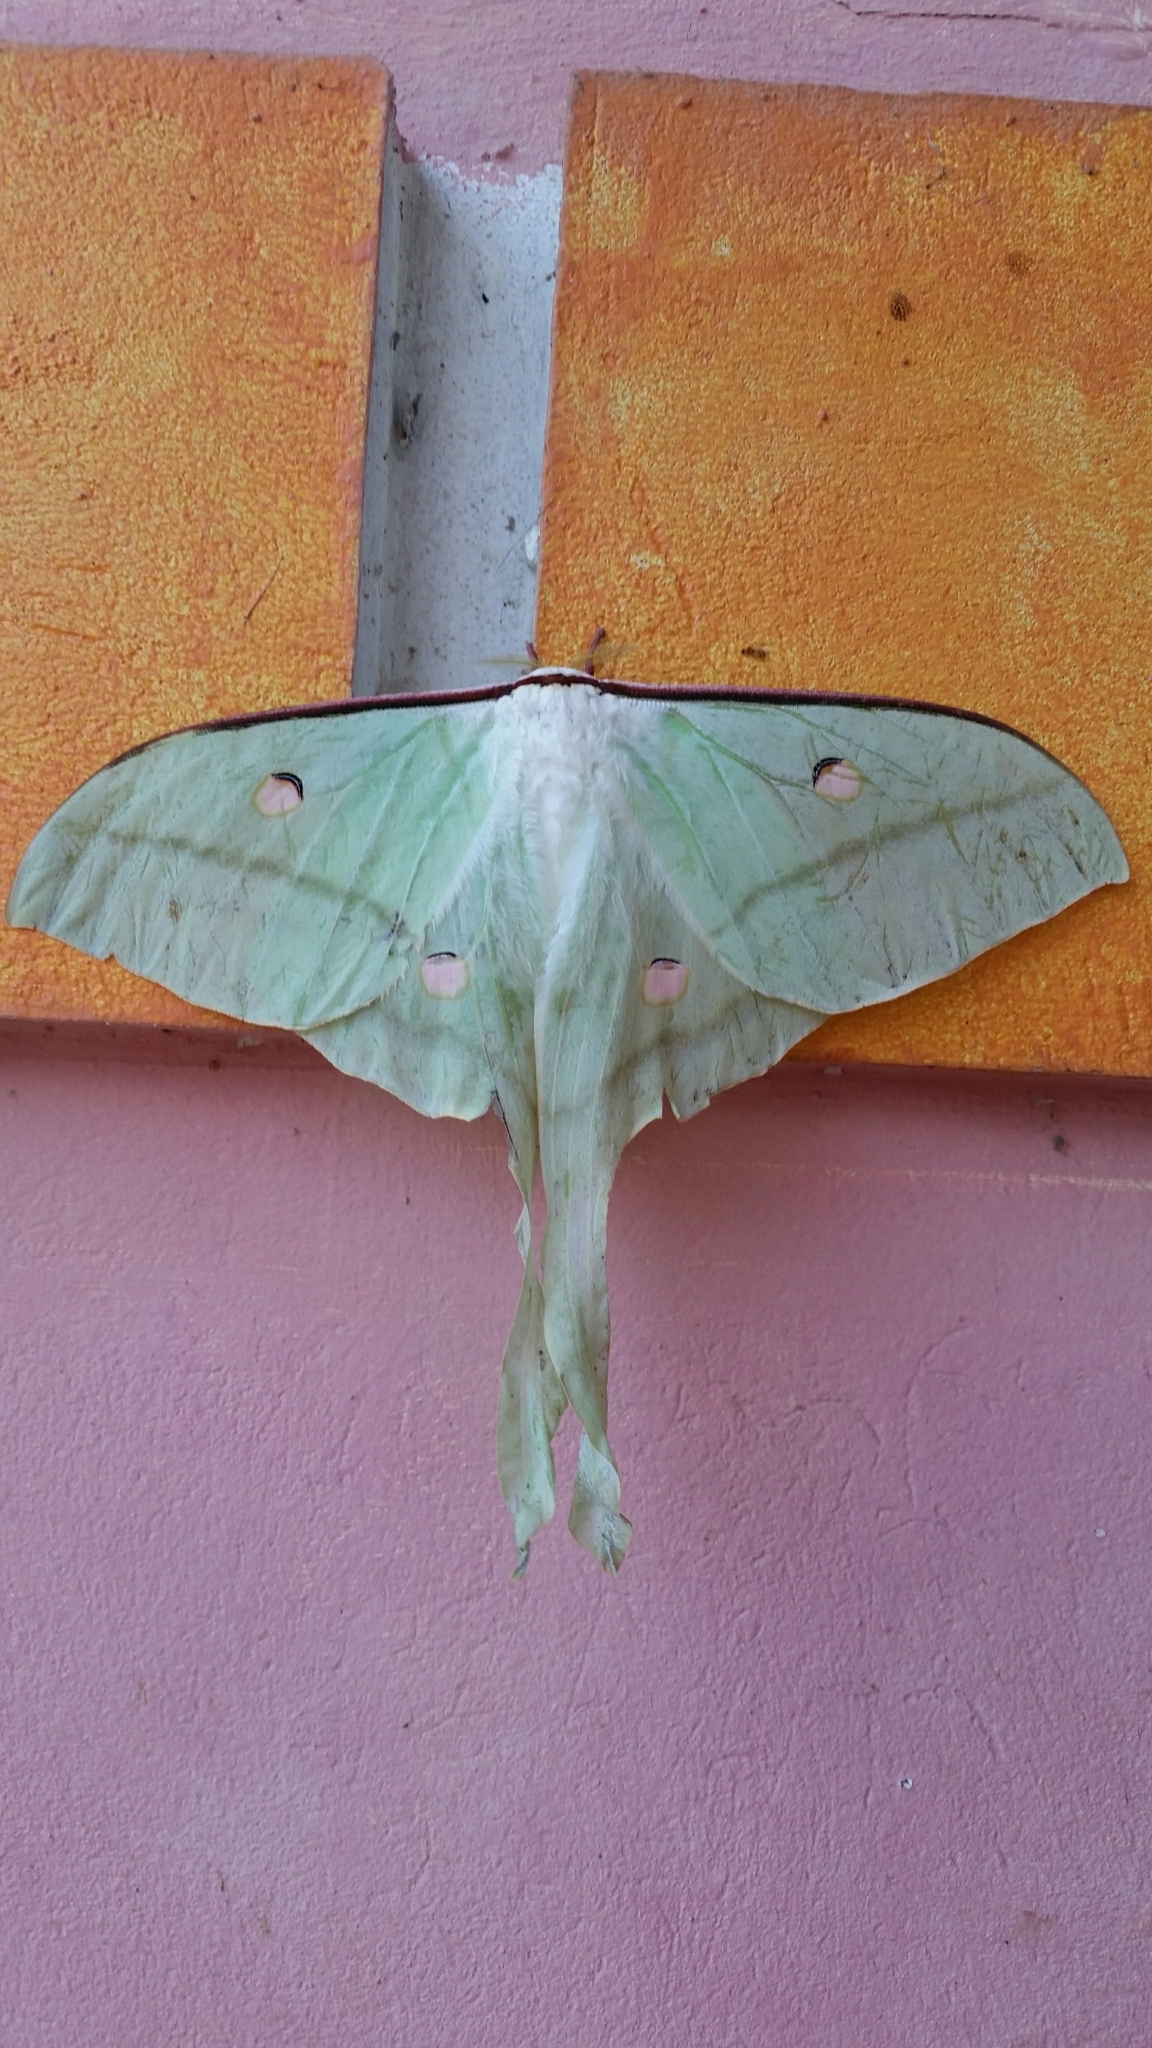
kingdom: Animalia
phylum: Arthropoda
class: Insecta
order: Lepidoptera
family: Saturniidae
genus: Actias
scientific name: Actias selene
